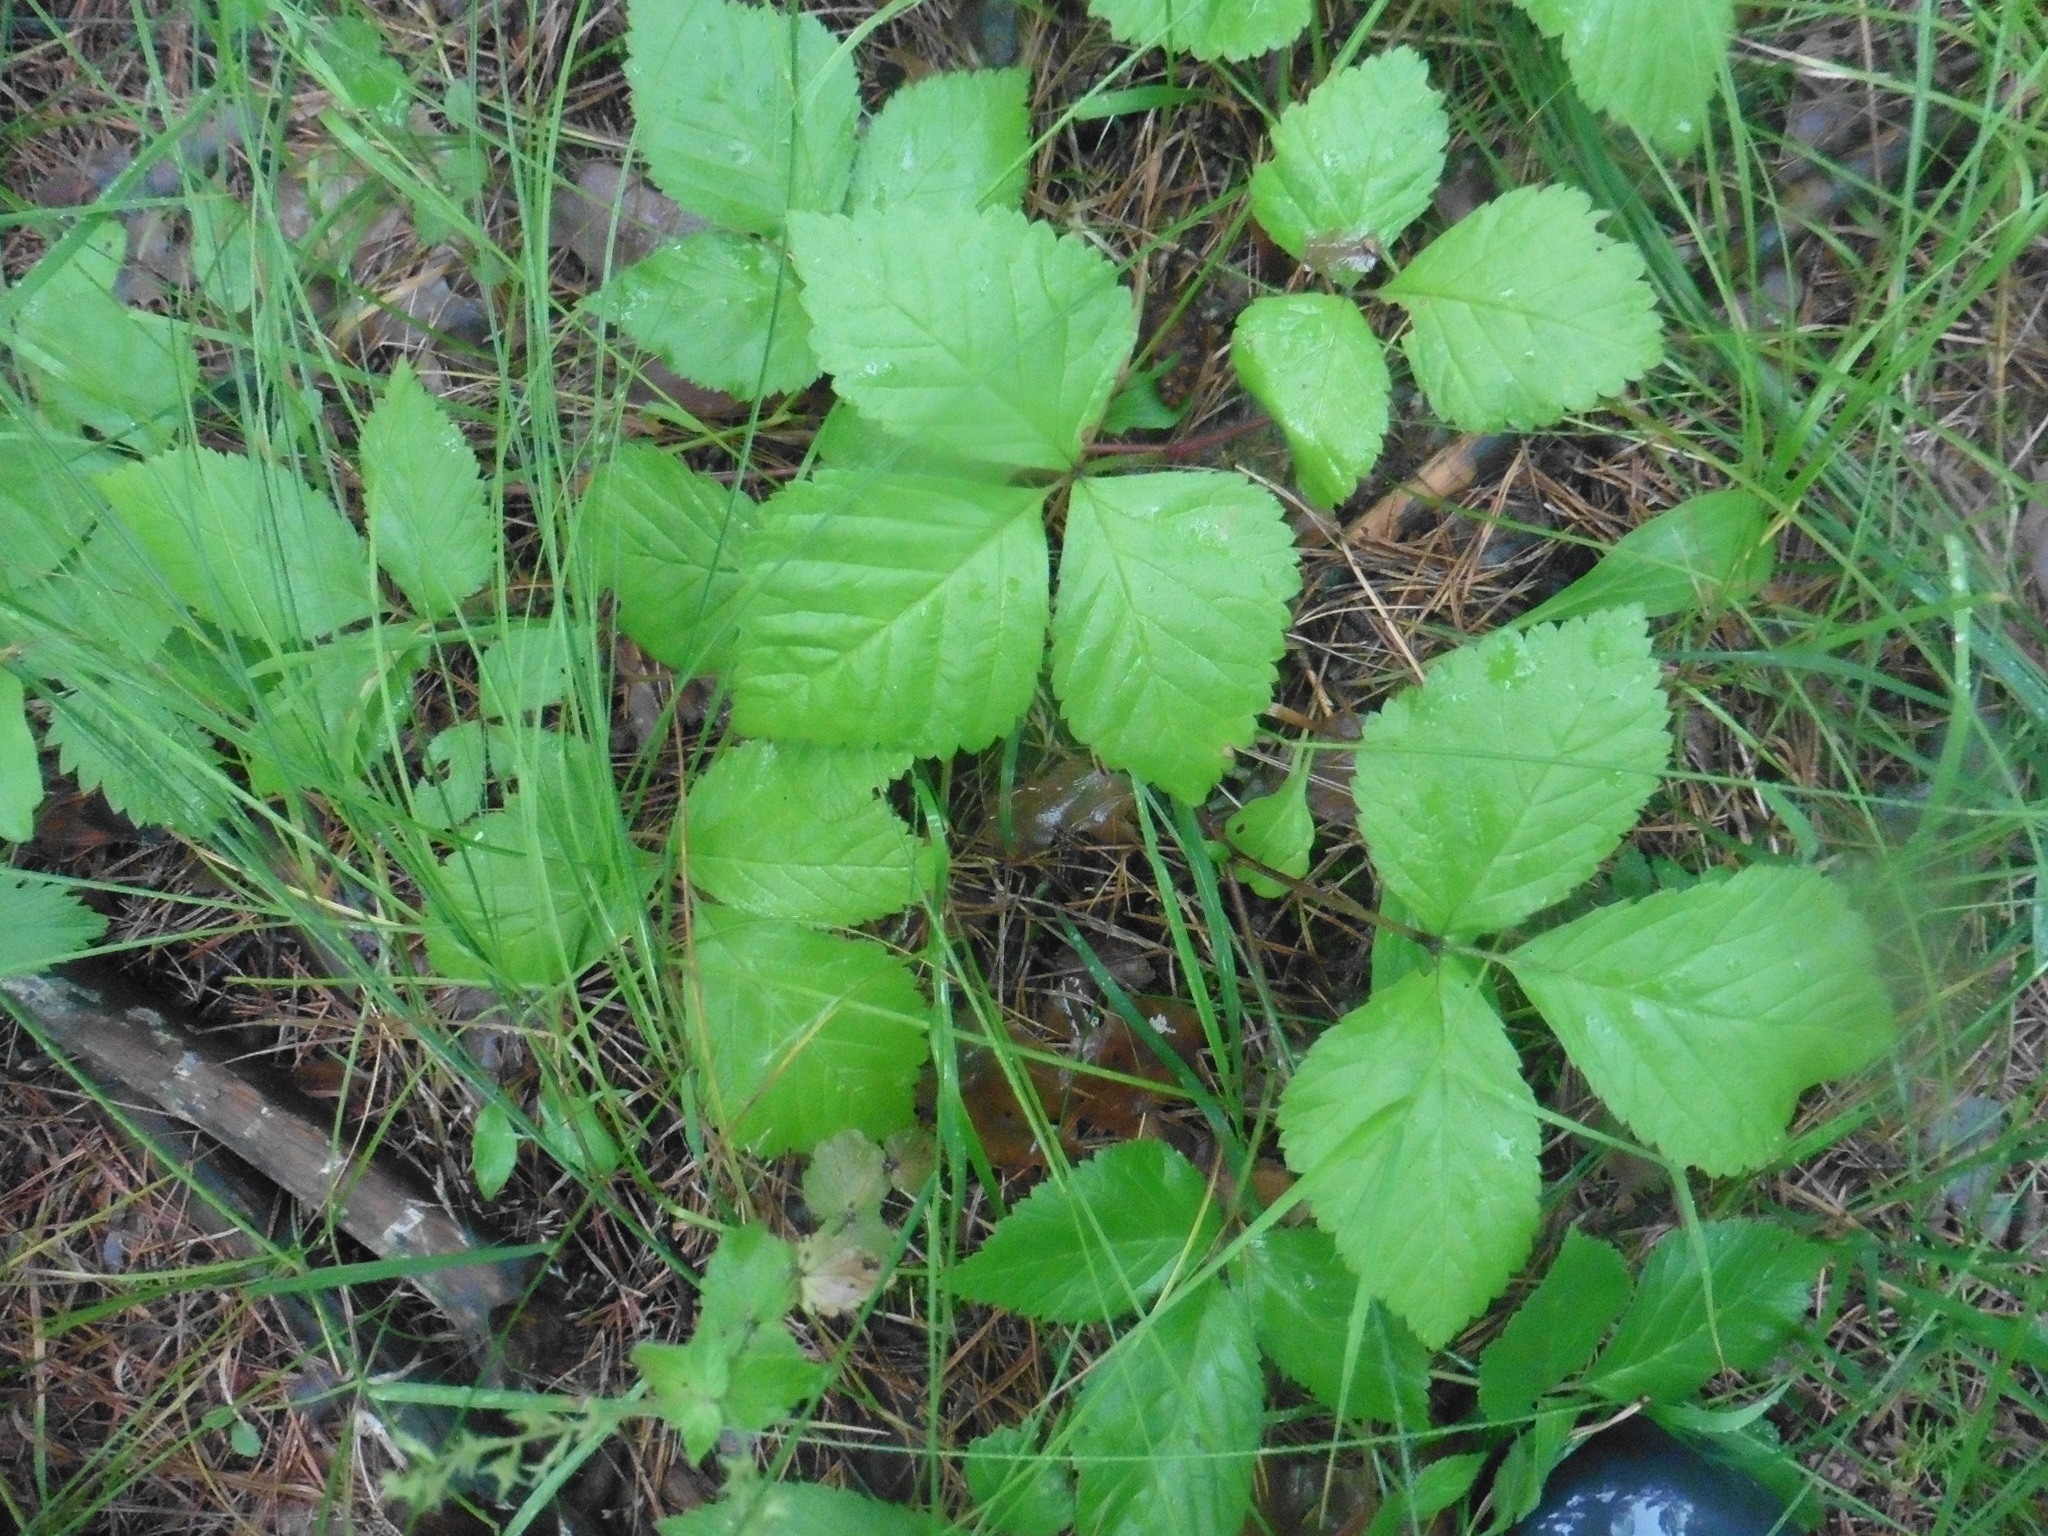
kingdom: Plantae
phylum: Tracheophyta
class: Magnoliopsida
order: Rosales
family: Rosaceae
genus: Rubus
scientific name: Rubus saxatilis
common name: Stone bramble
